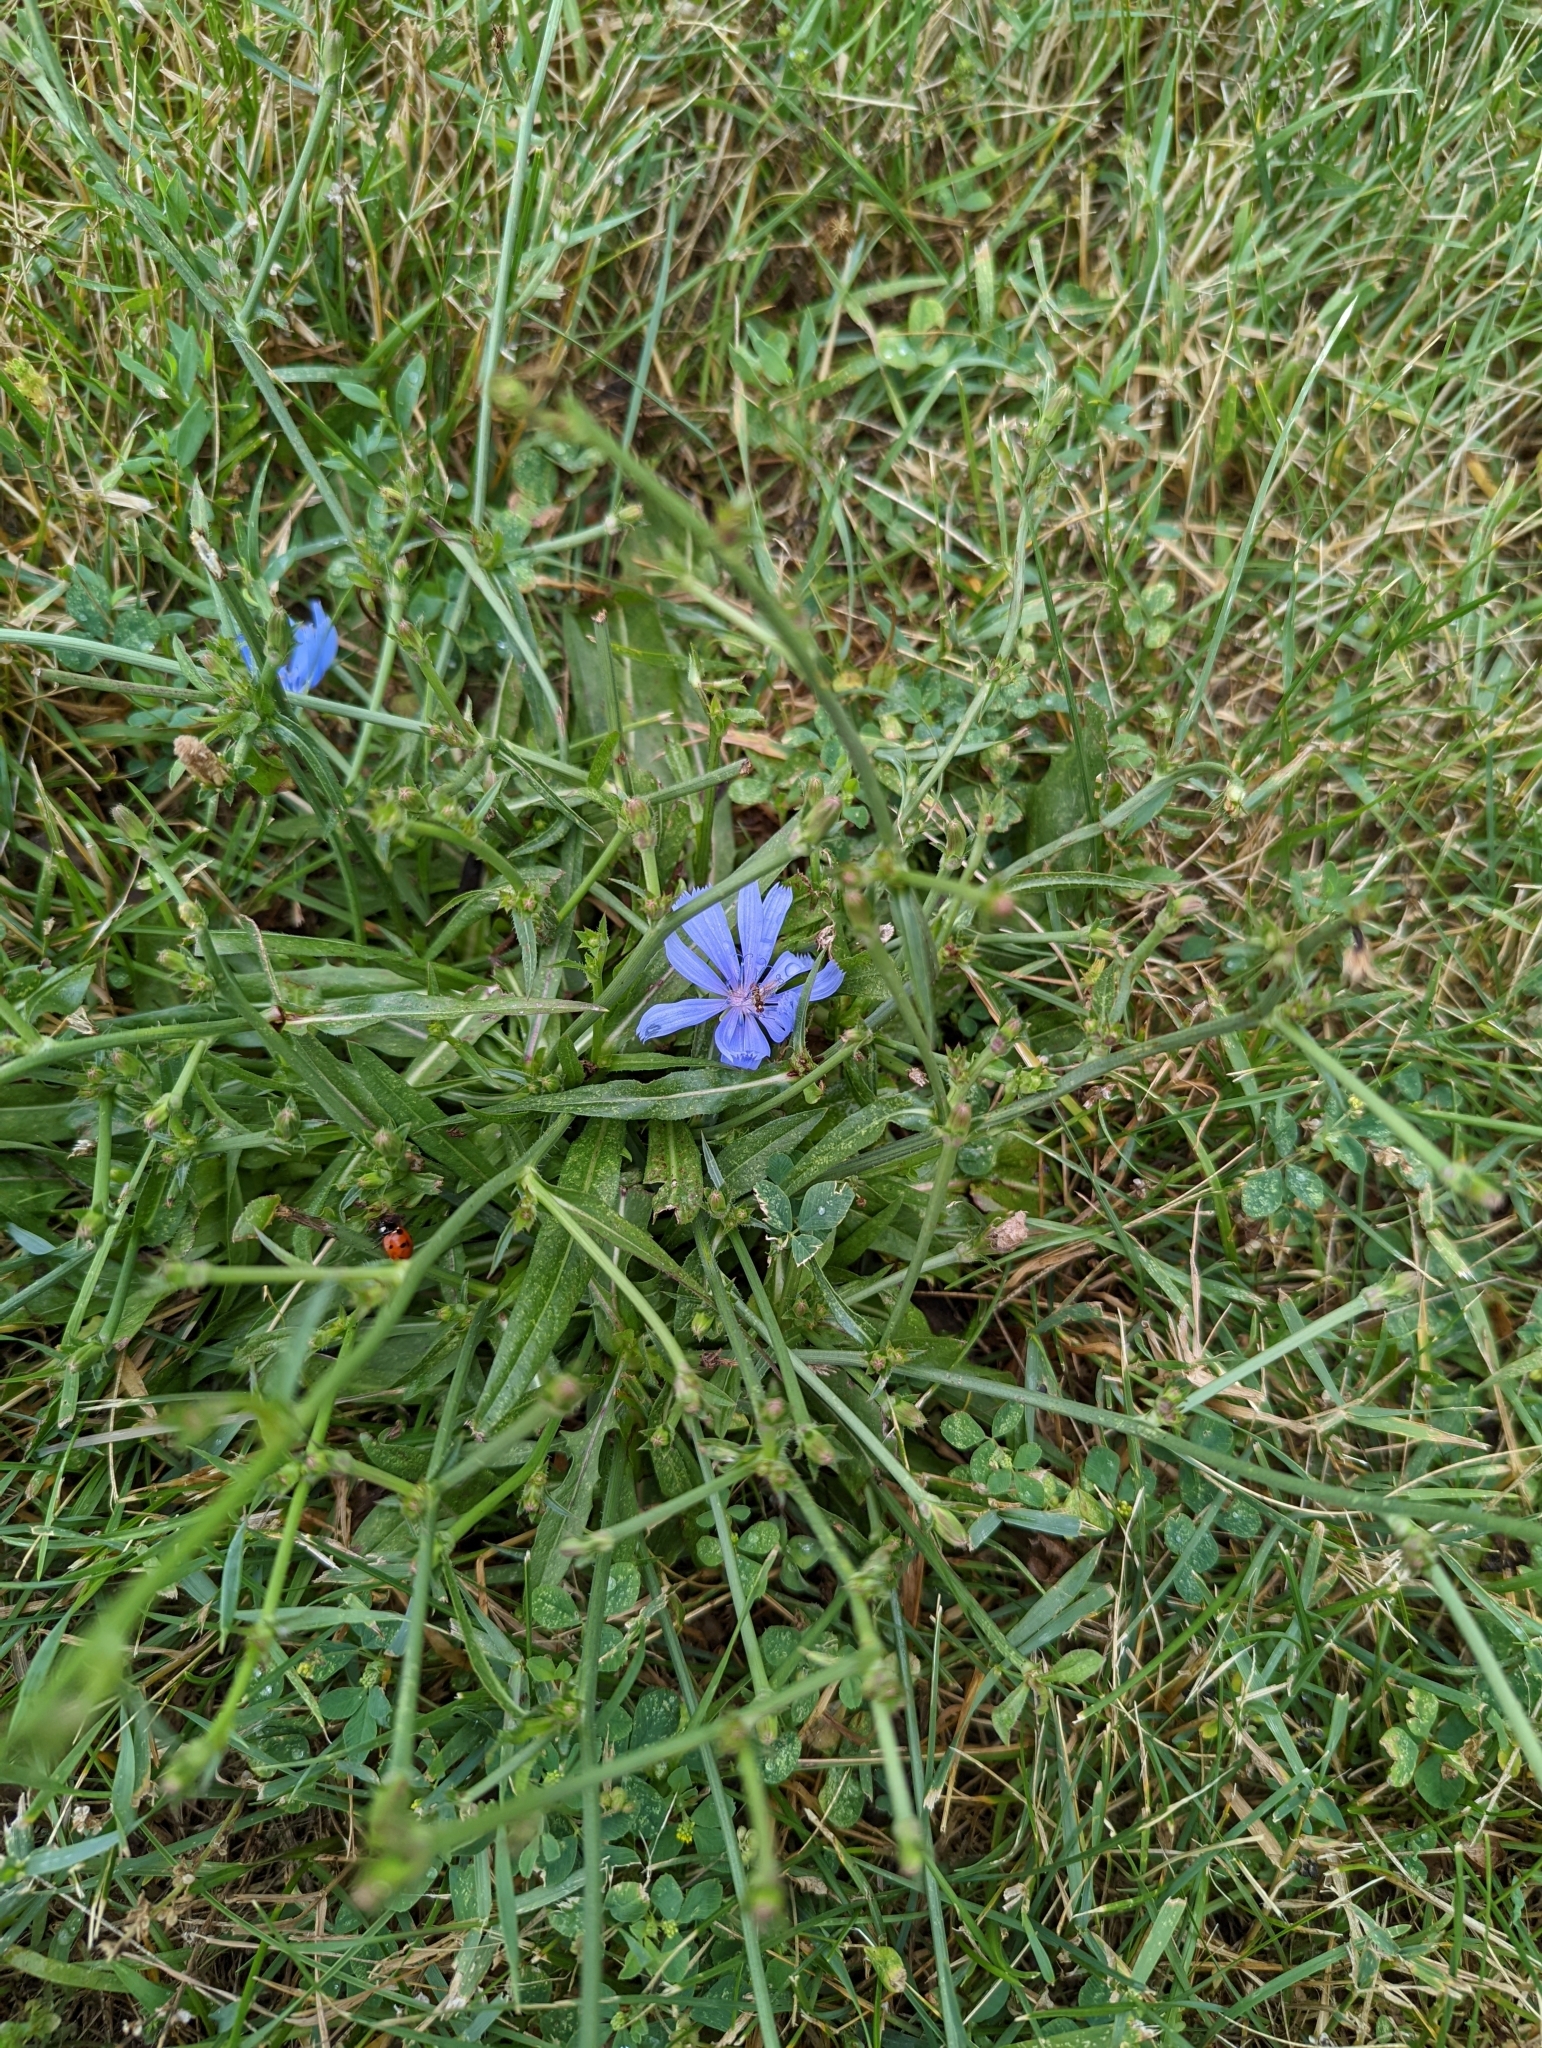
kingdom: Plantae
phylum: Tracheophyta
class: Magnoliopsida
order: Asterales
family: Asteraceae
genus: Cichorium
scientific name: Cichorium intybus
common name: Chicory
